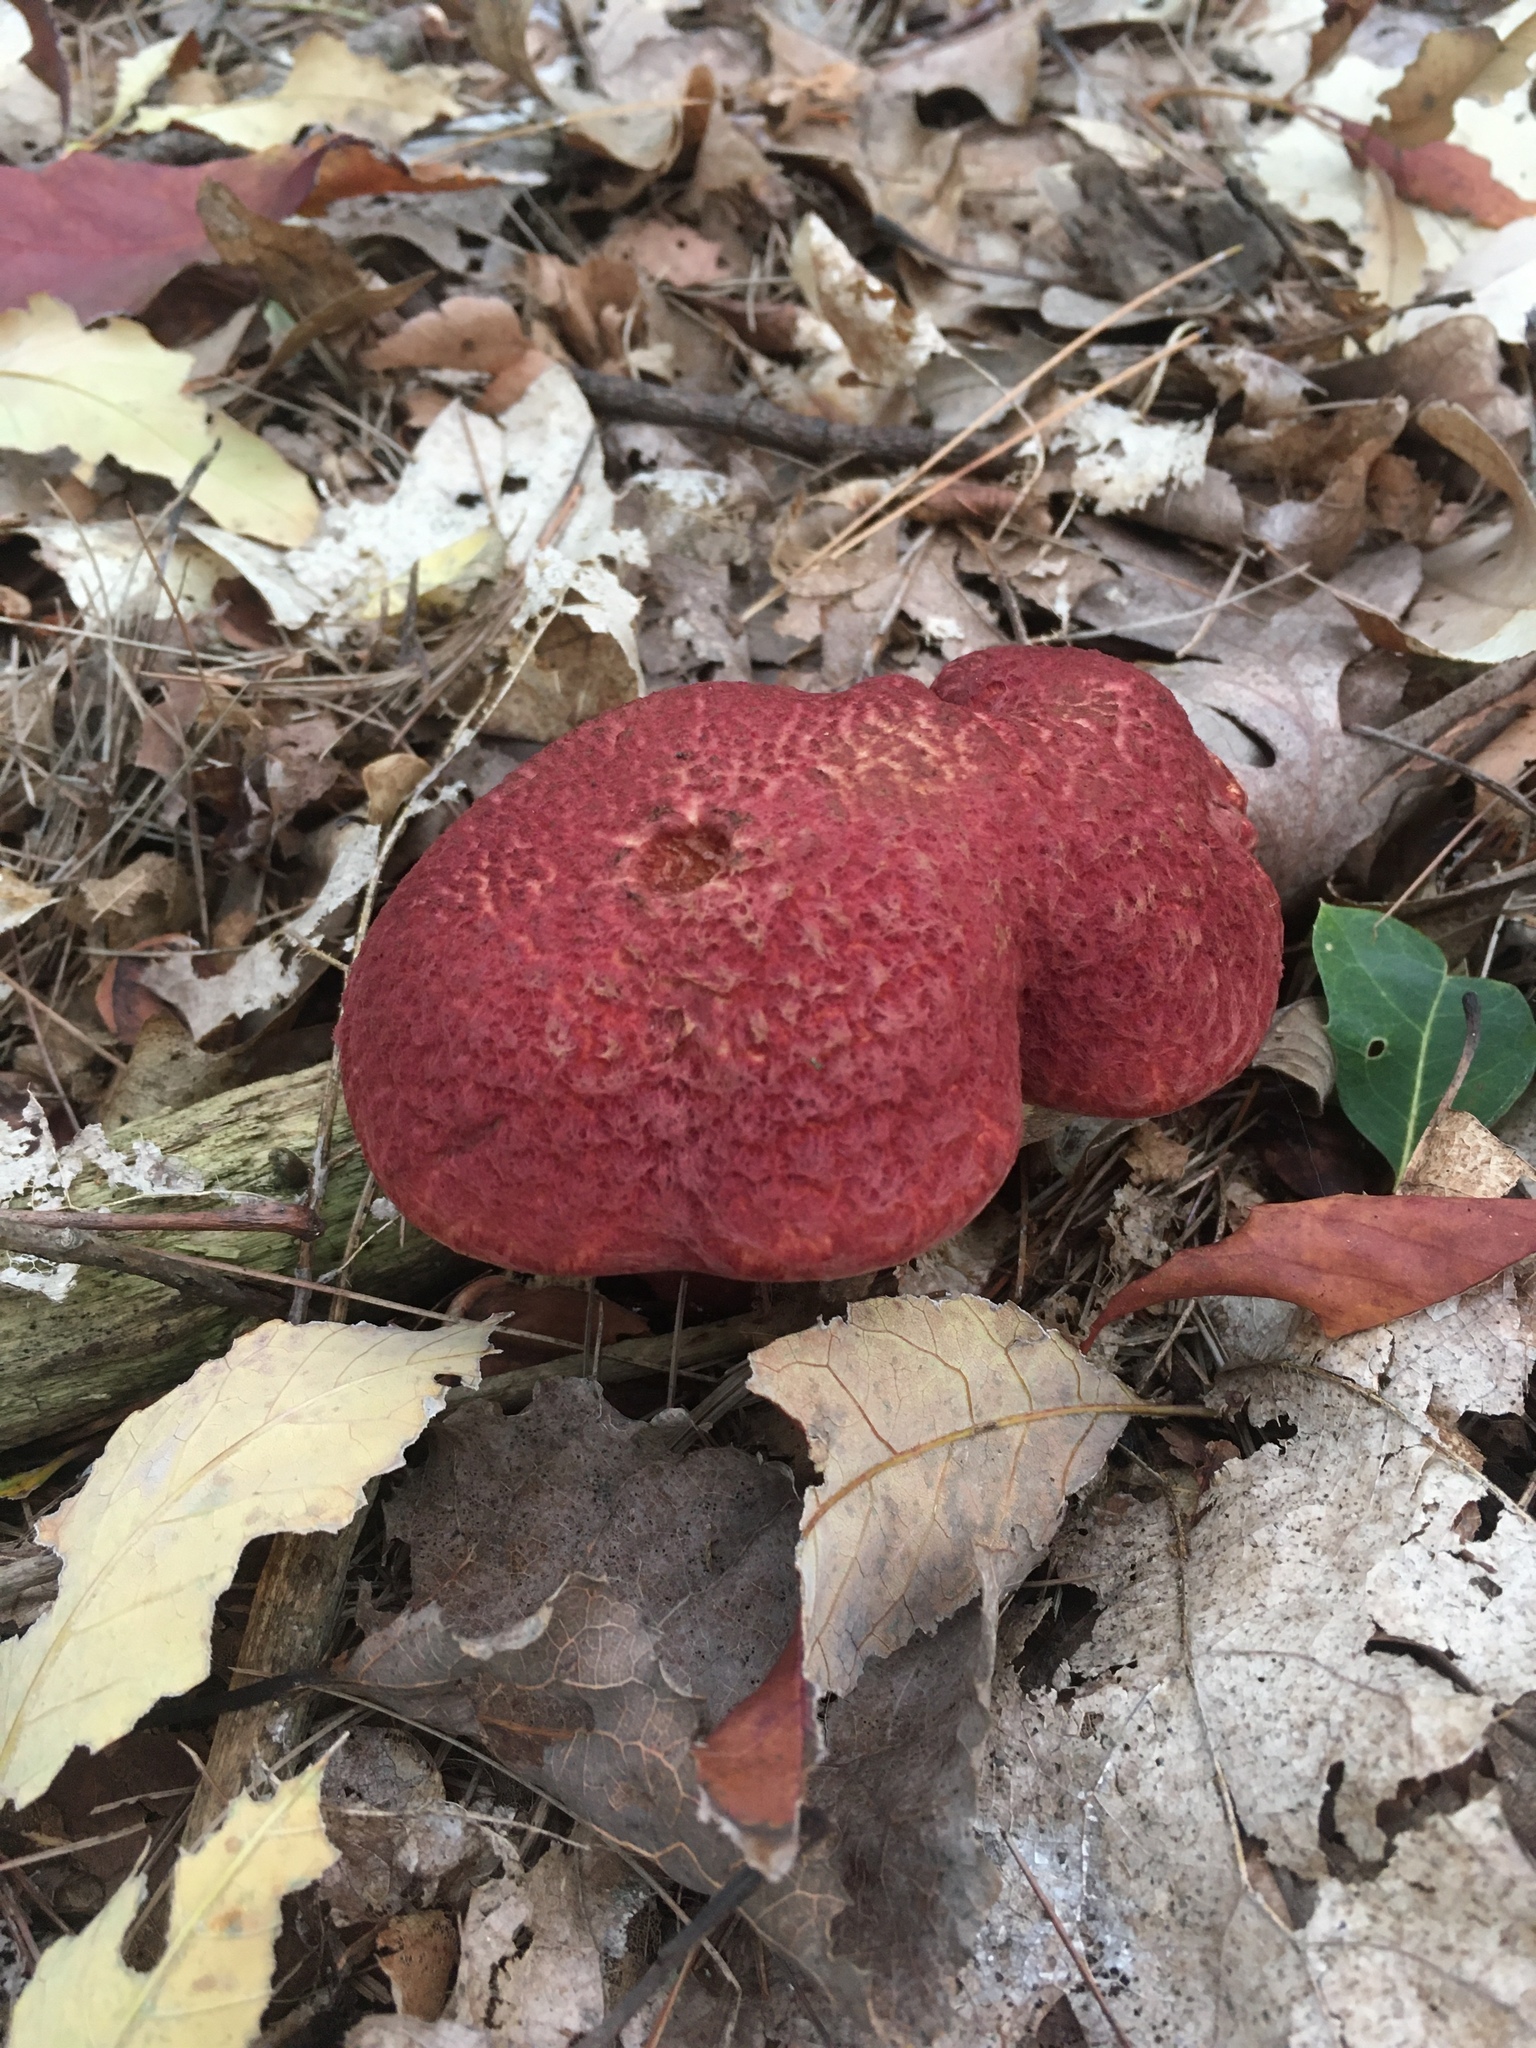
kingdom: Fungi
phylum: Basidiomycota
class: Agaricomycetes
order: Boletales
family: Suillaceae
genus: Suillus
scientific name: Suillus spraguei
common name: Painted suillus
